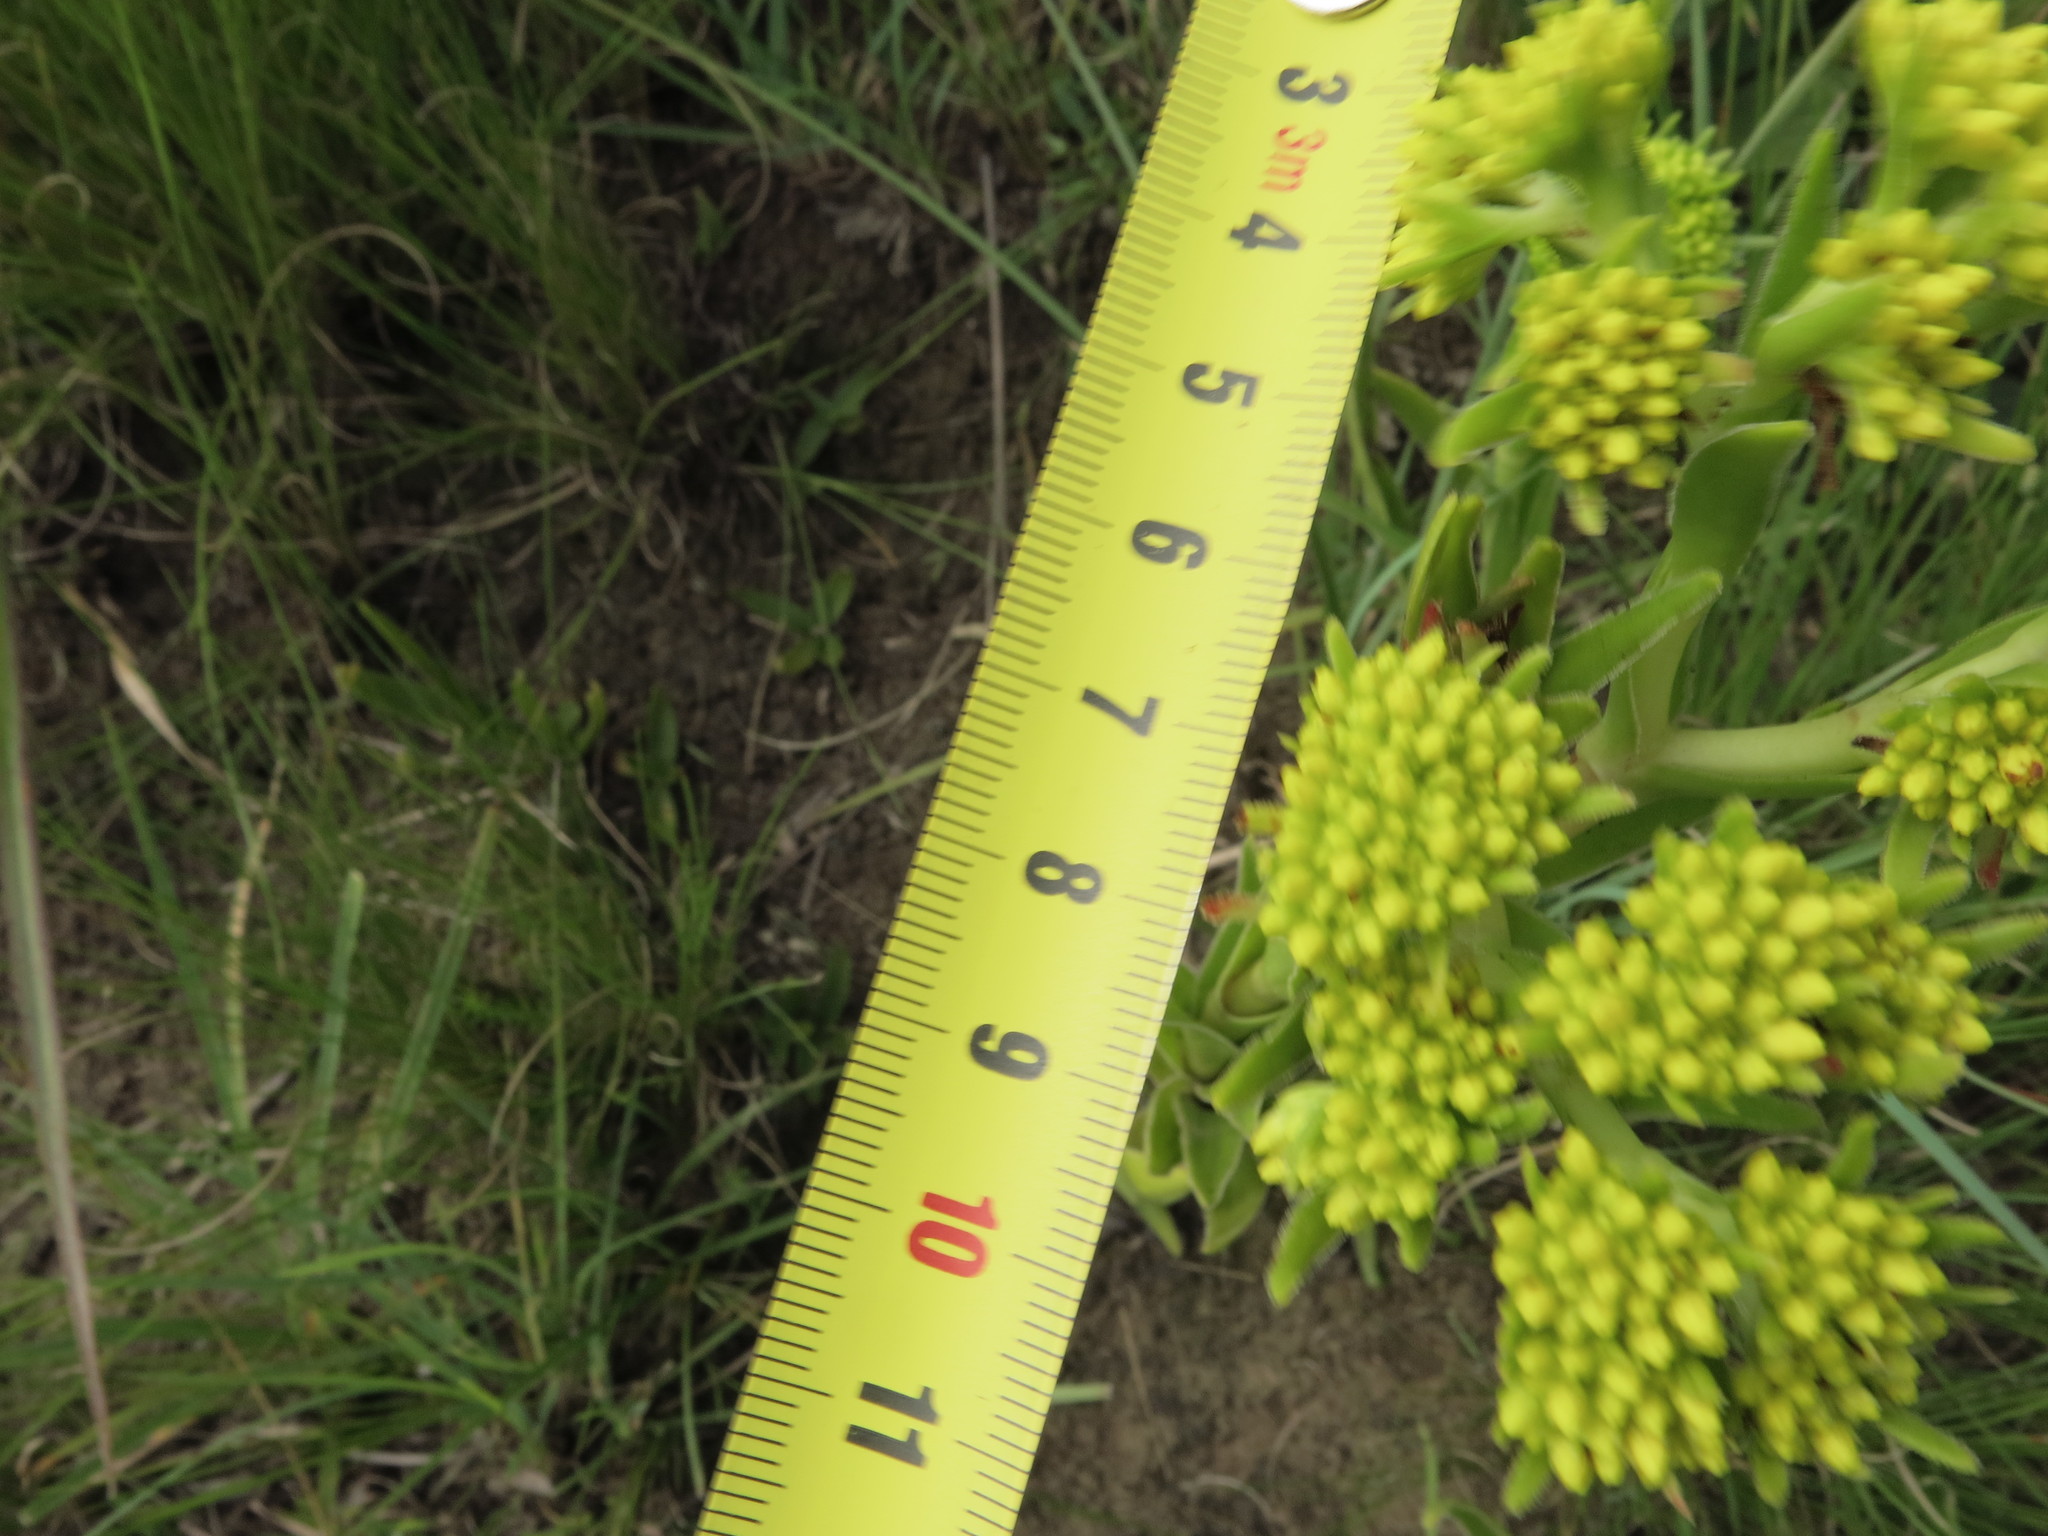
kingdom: Plantae
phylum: Tracheophyta
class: Magnoliopsida
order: Saxifragales
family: Crassulaceae
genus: Crassula
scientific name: Crassula vaginata
